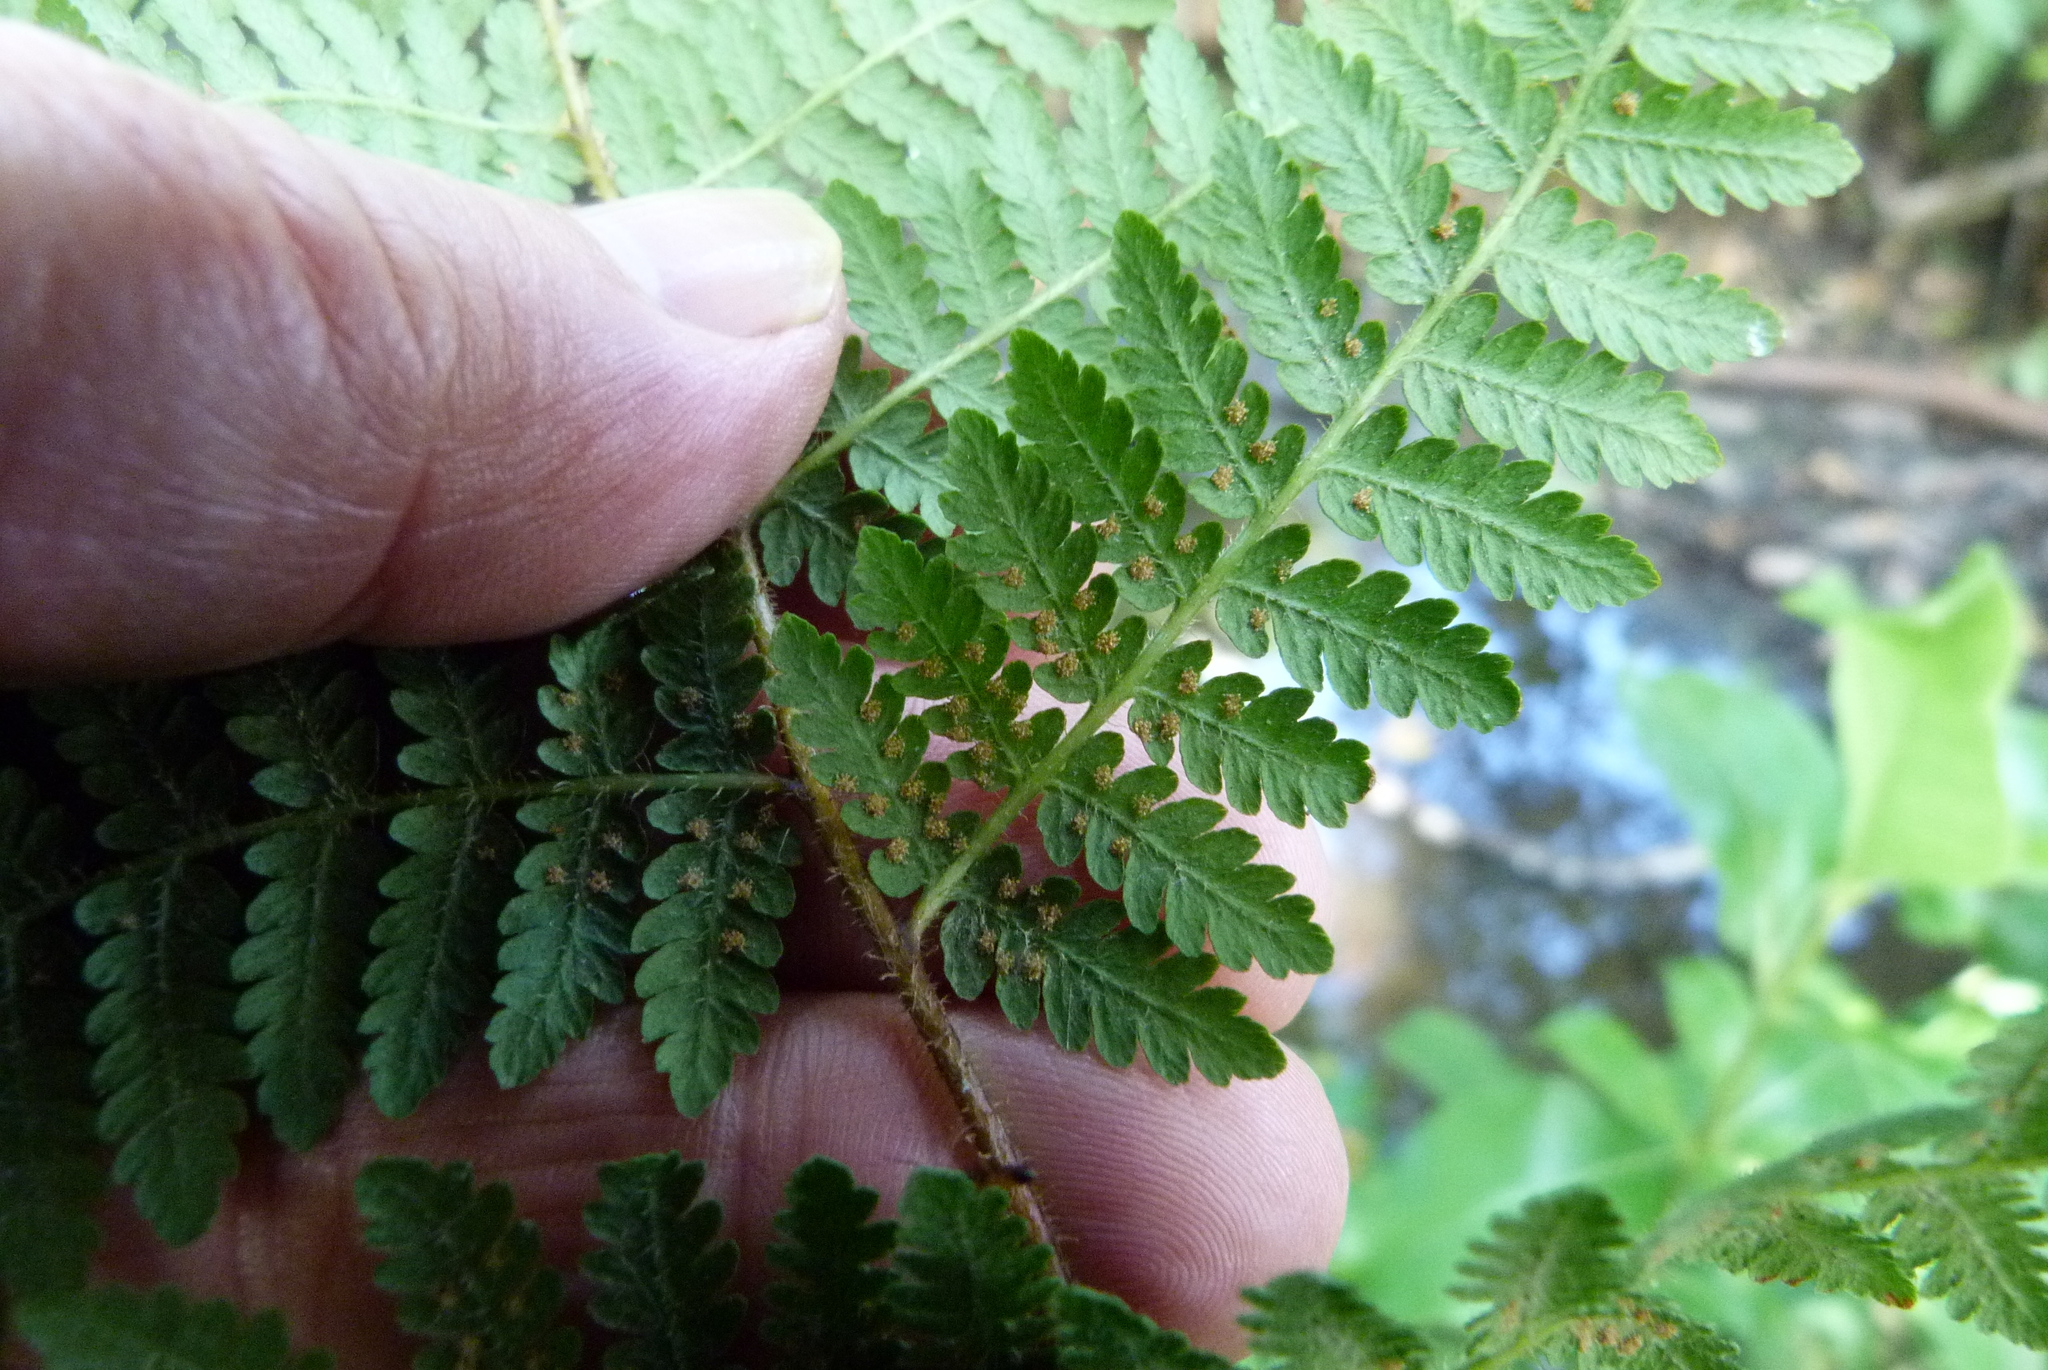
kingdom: Plantae
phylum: Tracheophyta
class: Polypodiopsida
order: Polypodiales
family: Dennstaedtiaceae
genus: Hypolepis
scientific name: Hypolepis ambigua
